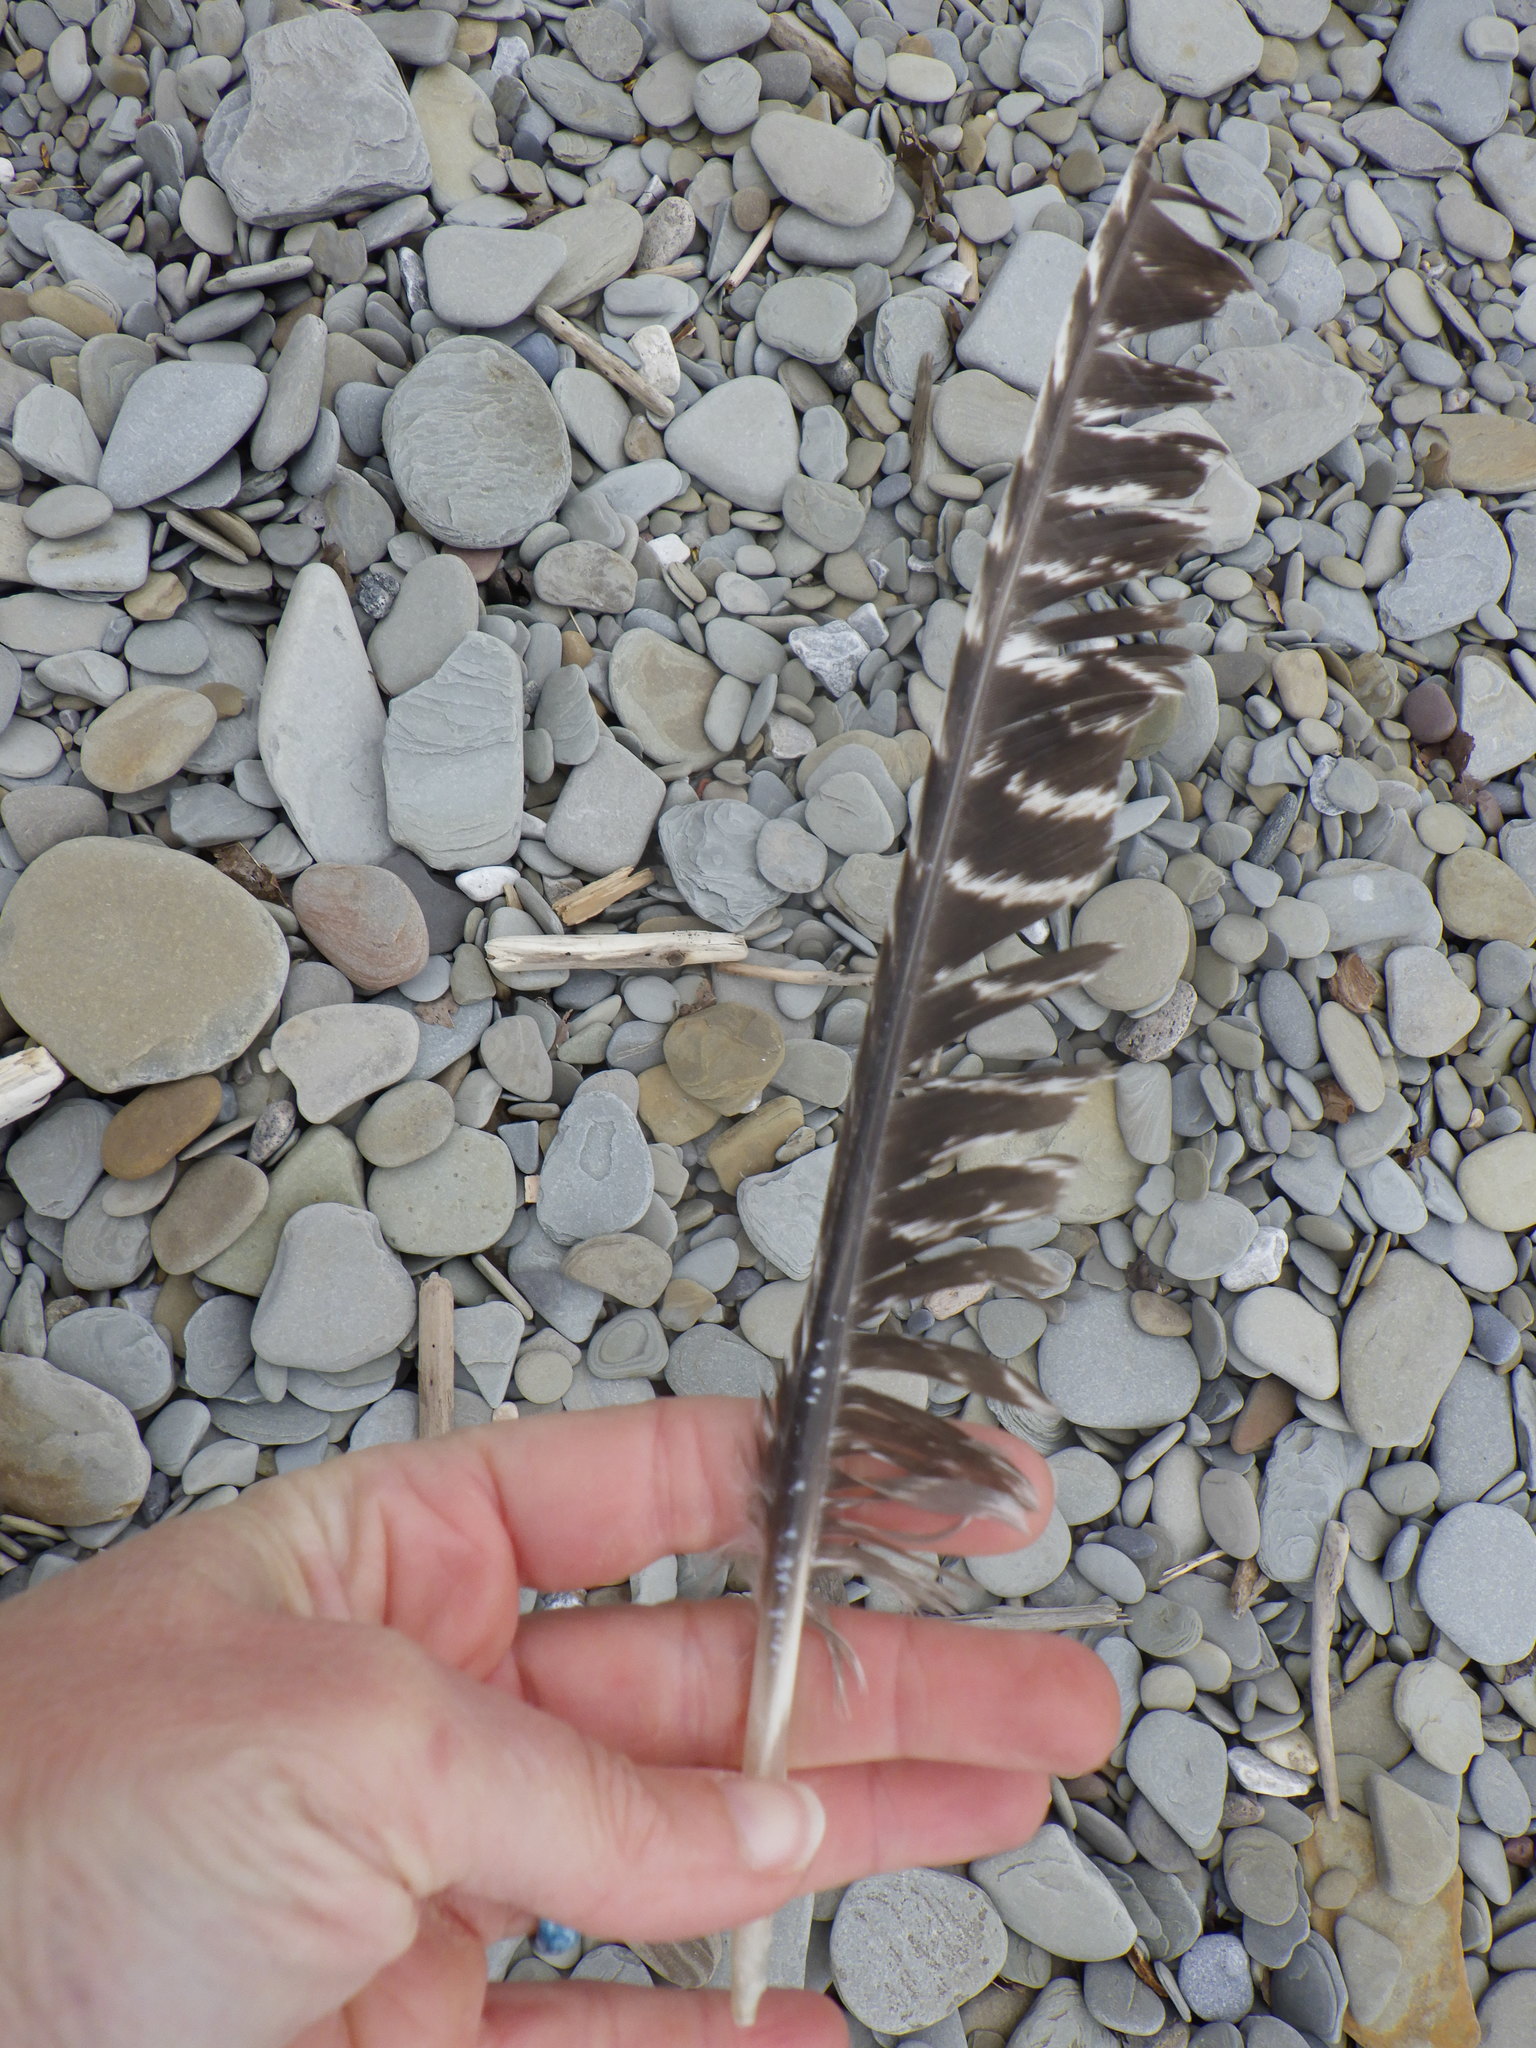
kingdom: Animalia
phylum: Chordata
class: Aves
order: Galliformes
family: Phasianidae
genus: Meleagris
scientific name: Meleagris gallopavo
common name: Wild turkey
